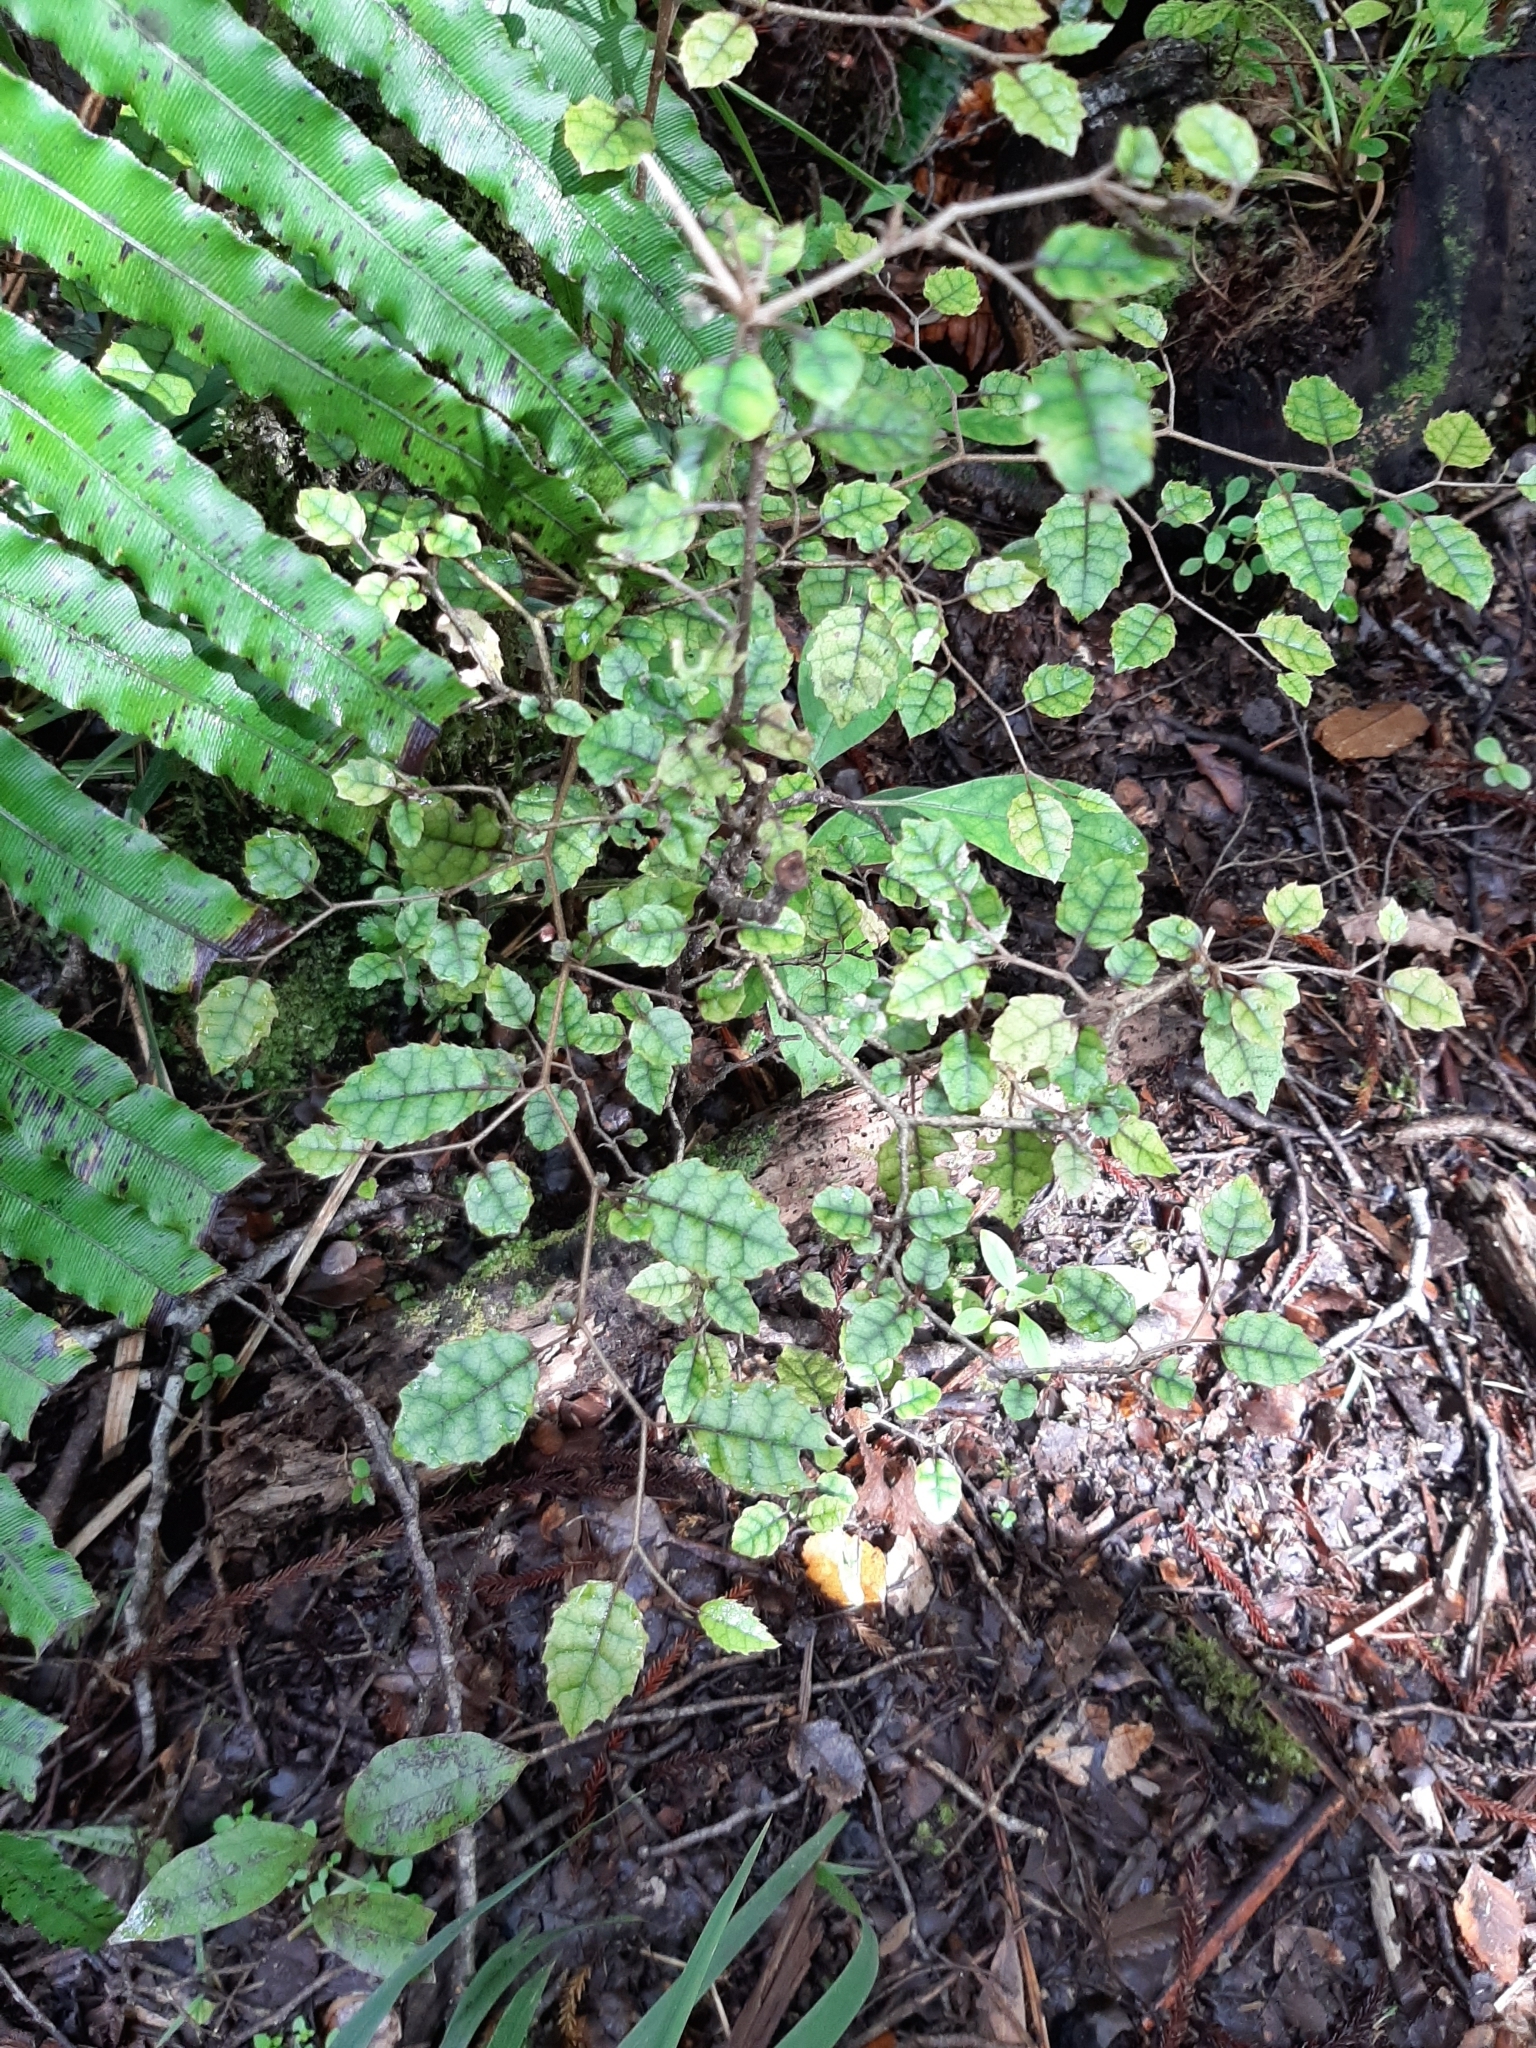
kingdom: Plantae
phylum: Tracheophyta
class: Magnoliopsida
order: Asterales
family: Rousseaceae
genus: Carpodetus
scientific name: Carpodetus serratus
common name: White mapau
